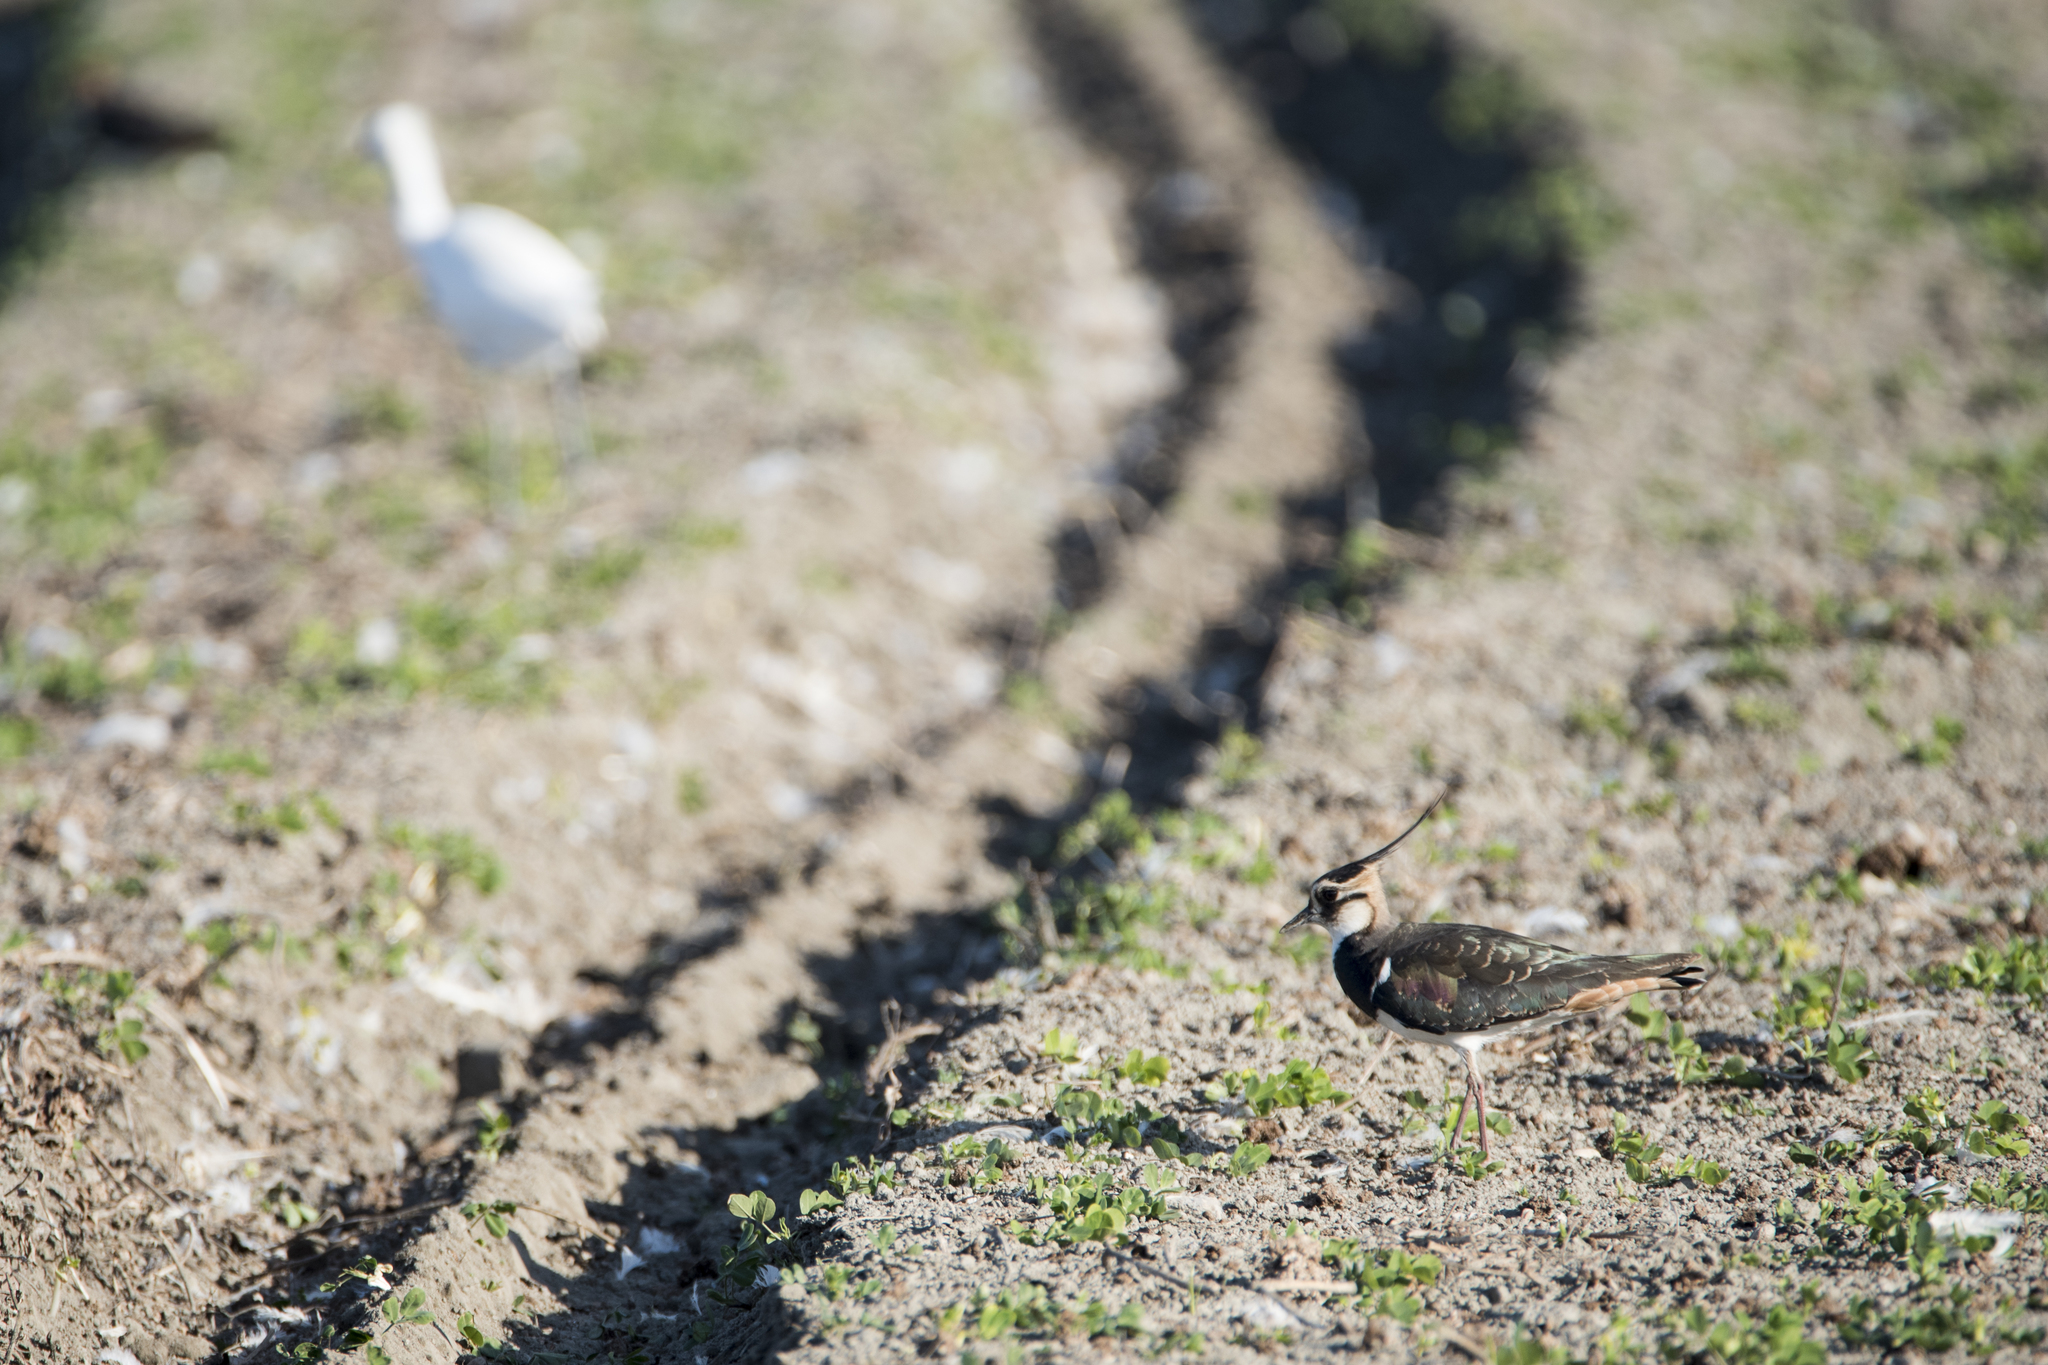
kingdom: Animalia
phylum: Chordata
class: Aves
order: Charadriiformes
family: Charadriidae
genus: Vanellus
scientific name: Vanellus vanellus
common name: Northern lapwing
